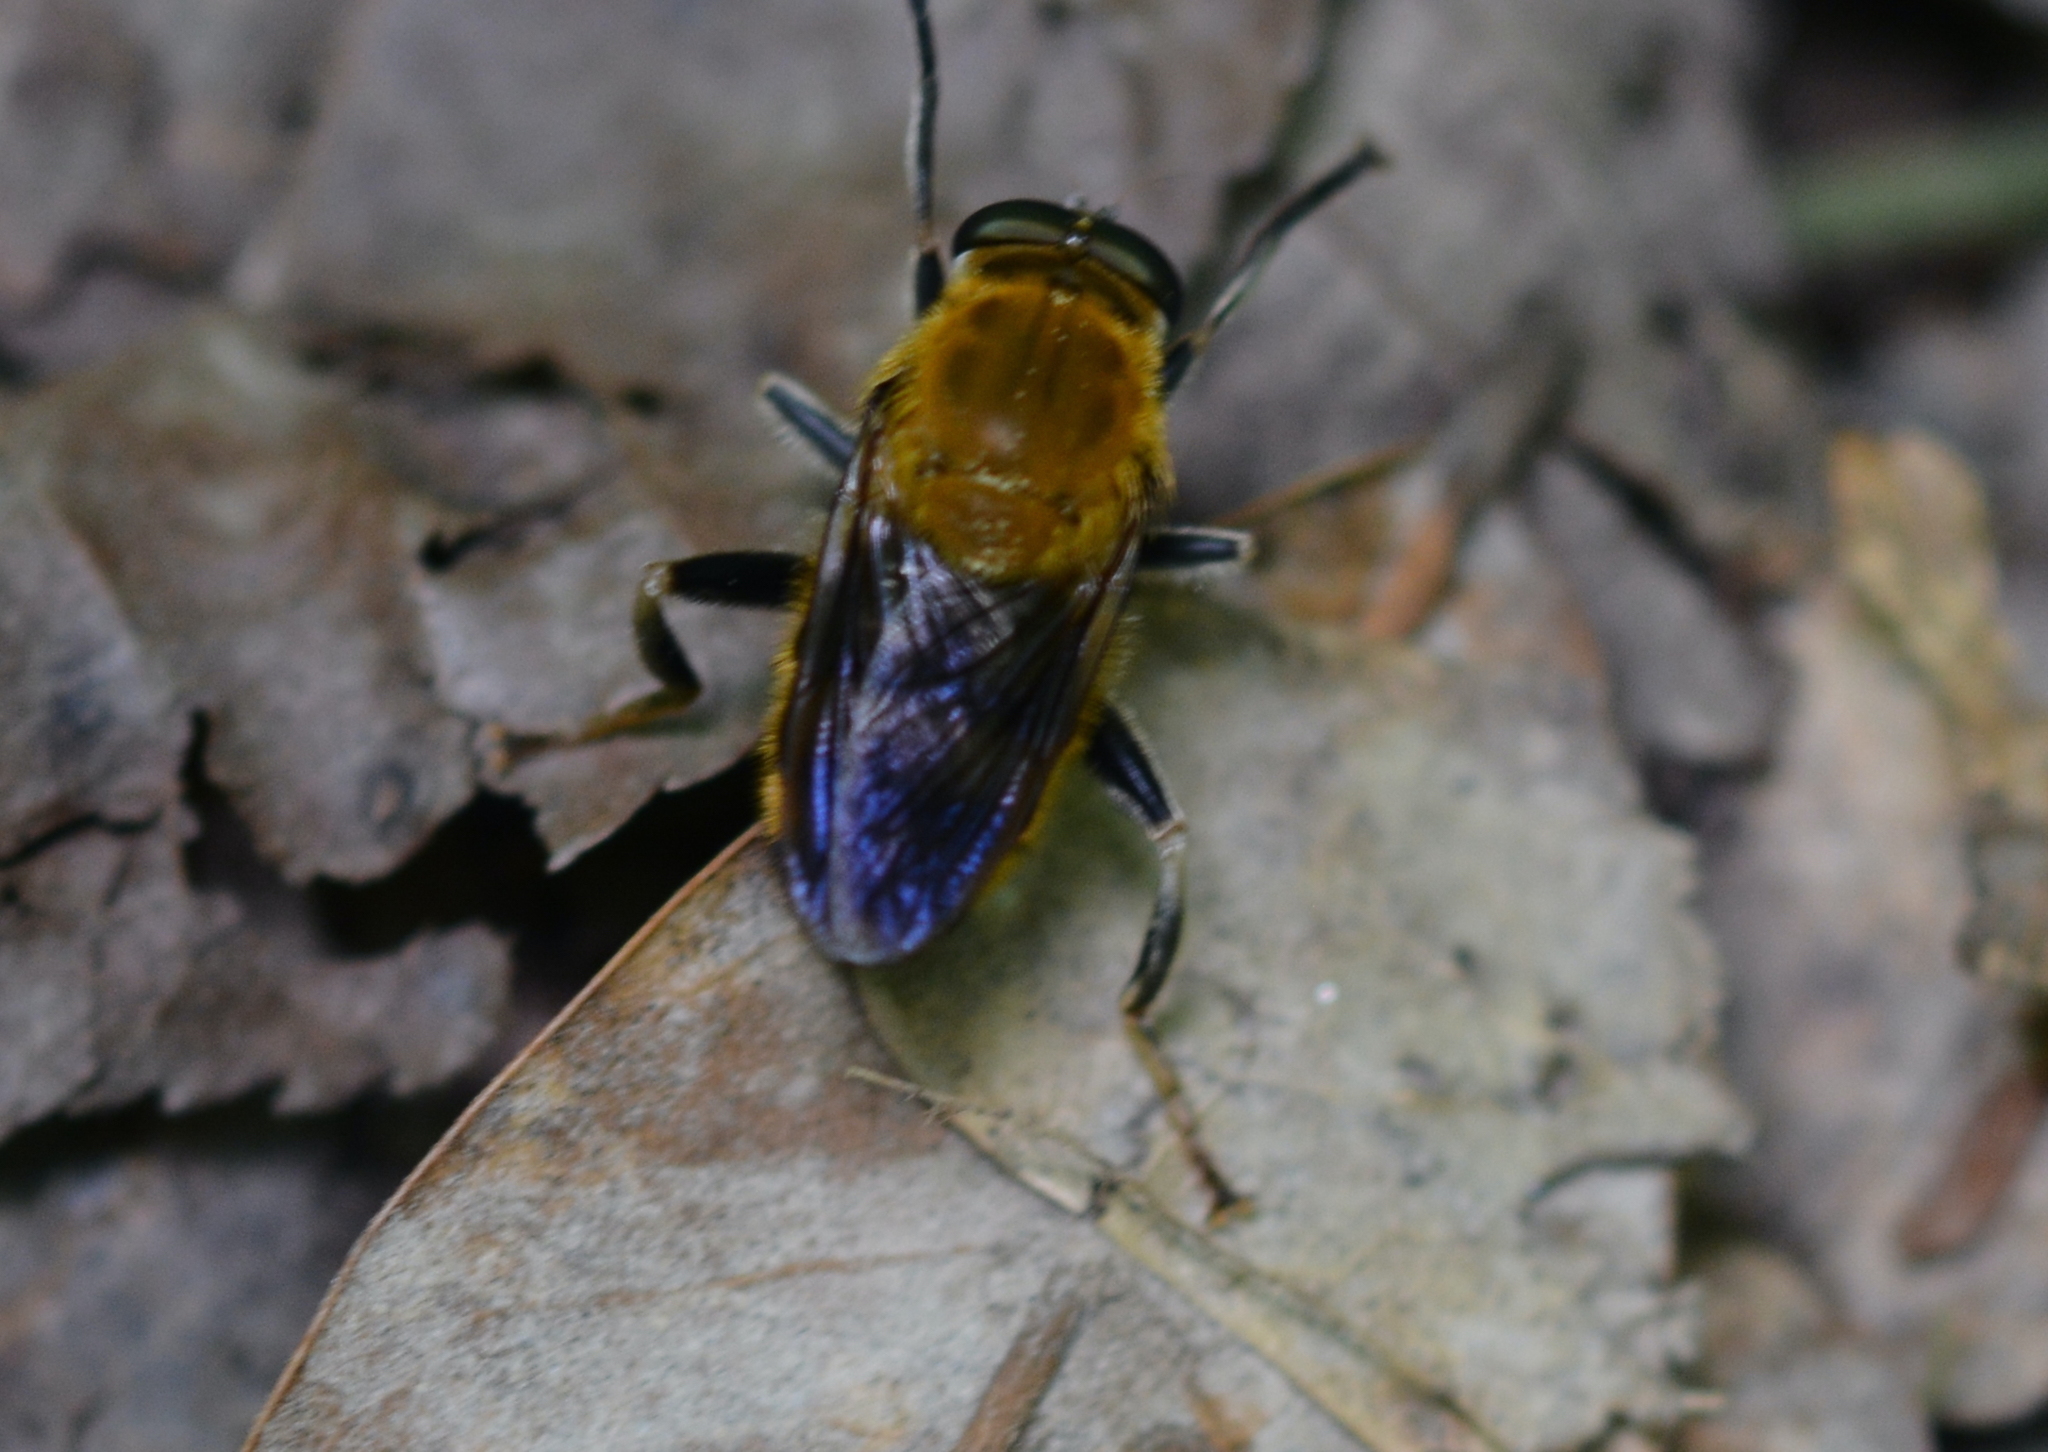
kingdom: Animalia
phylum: Arthropoda
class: Insecta
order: Diptera
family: Syrphidae
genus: Pterallastes
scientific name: Pterallastes thoracicus
